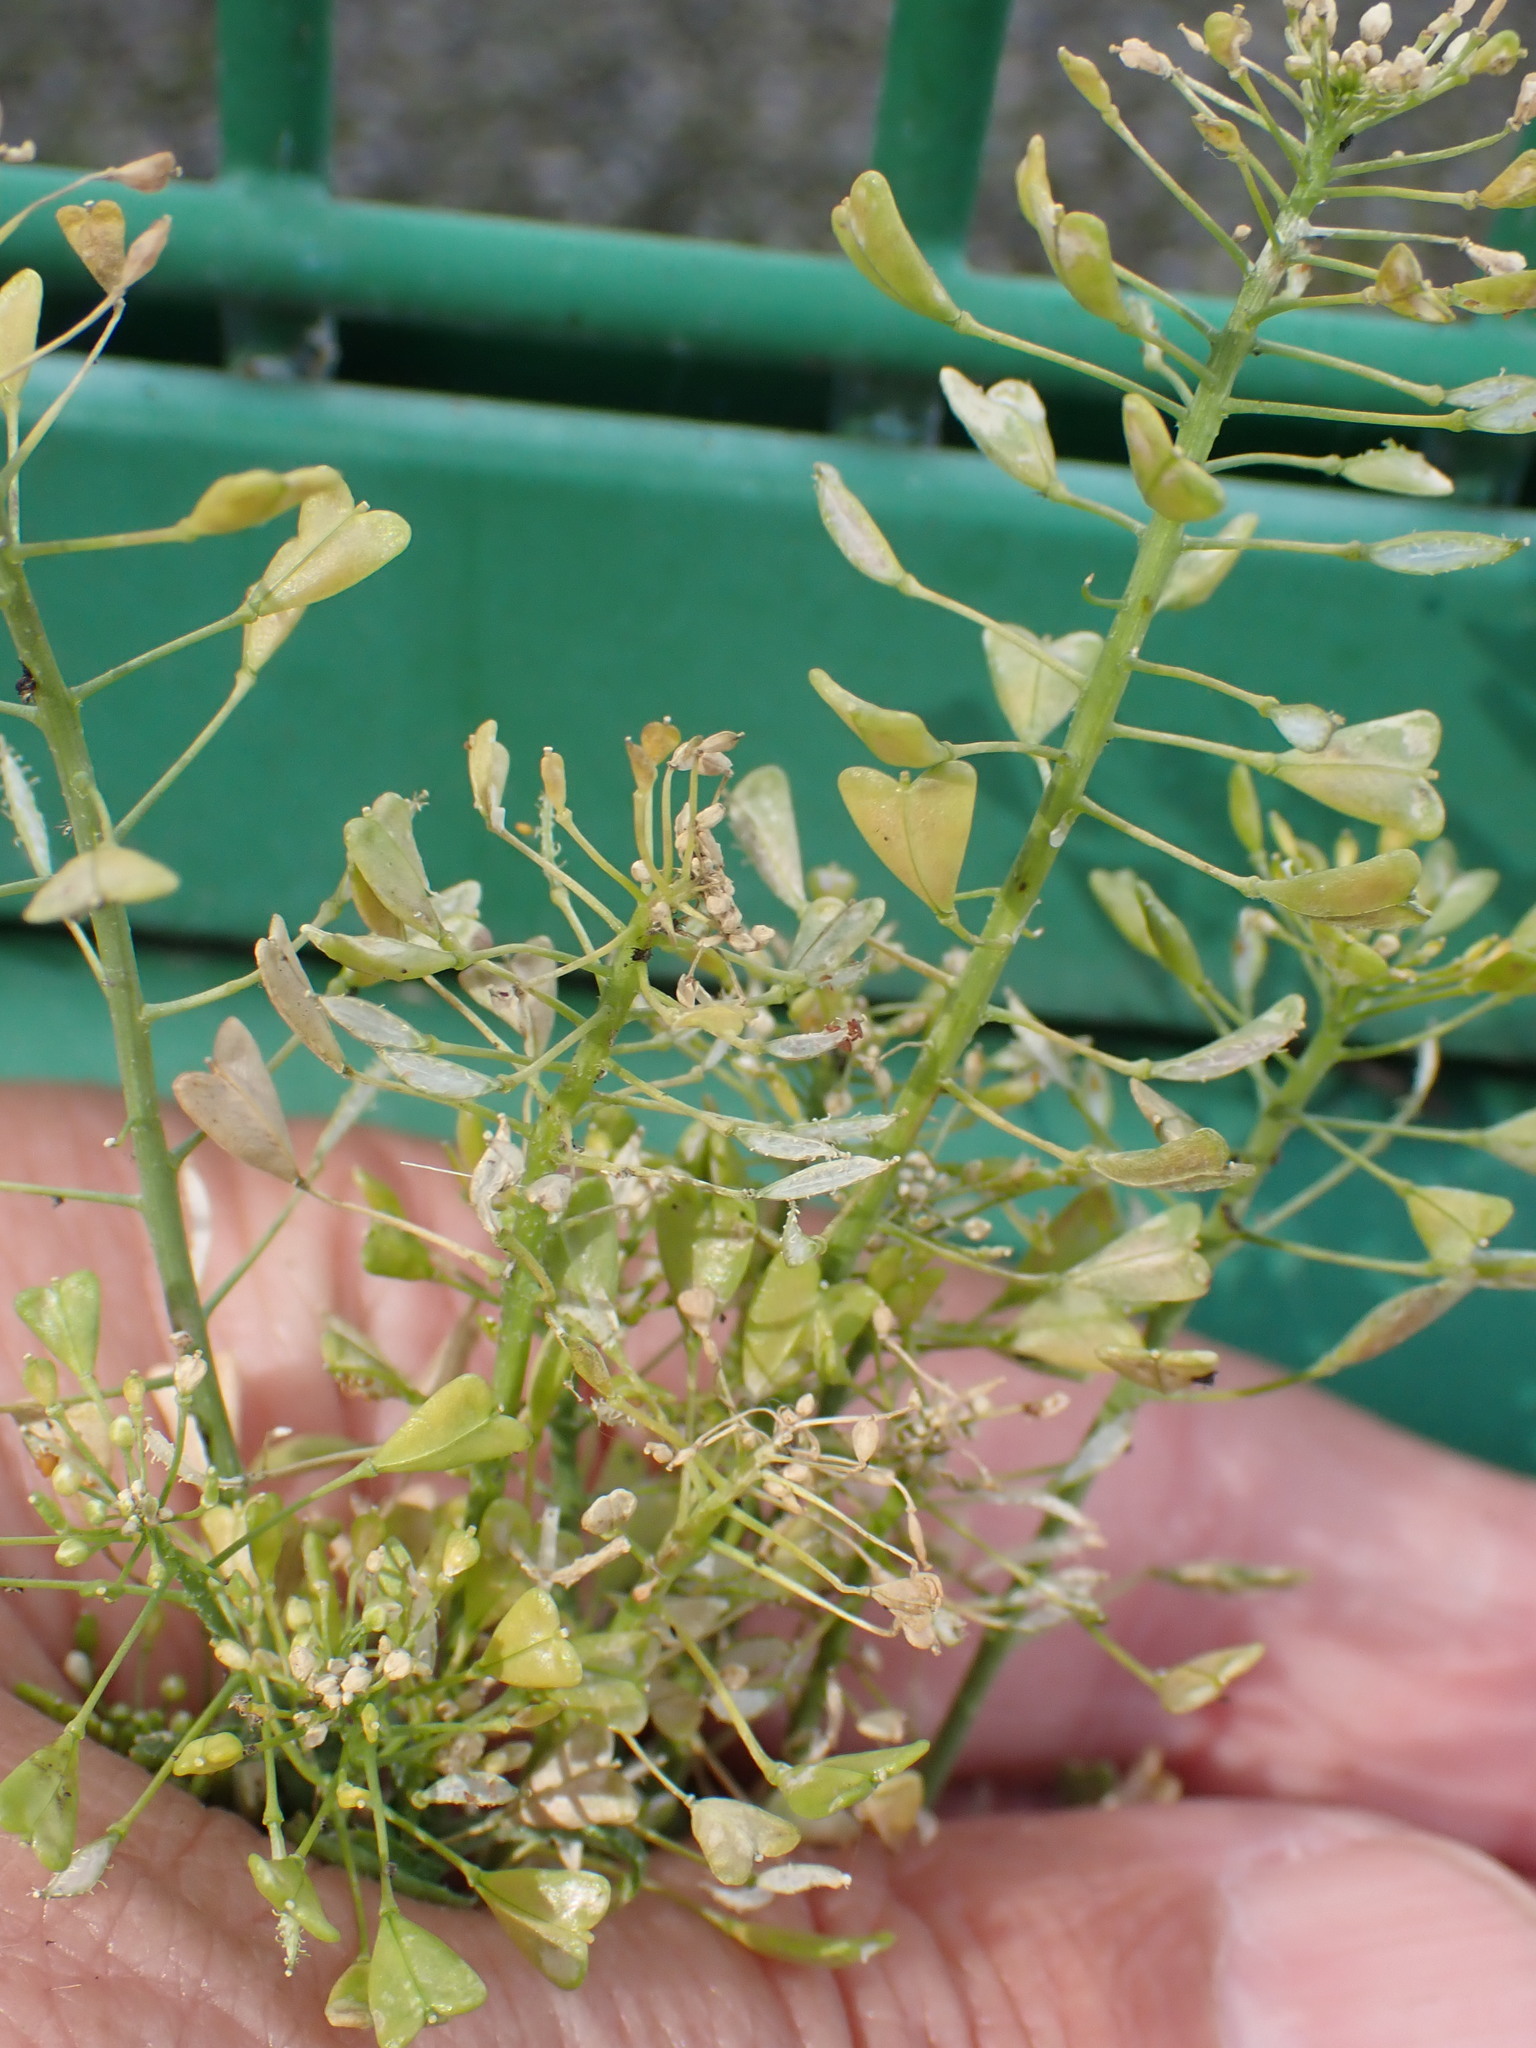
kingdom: Plantae
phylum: Tracheophyta
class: Magnoliopsida
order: Brassicales
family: Brassicaceae
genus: Capsella
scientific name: Capsella bursa-pastoris
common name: Shepherd's purse
